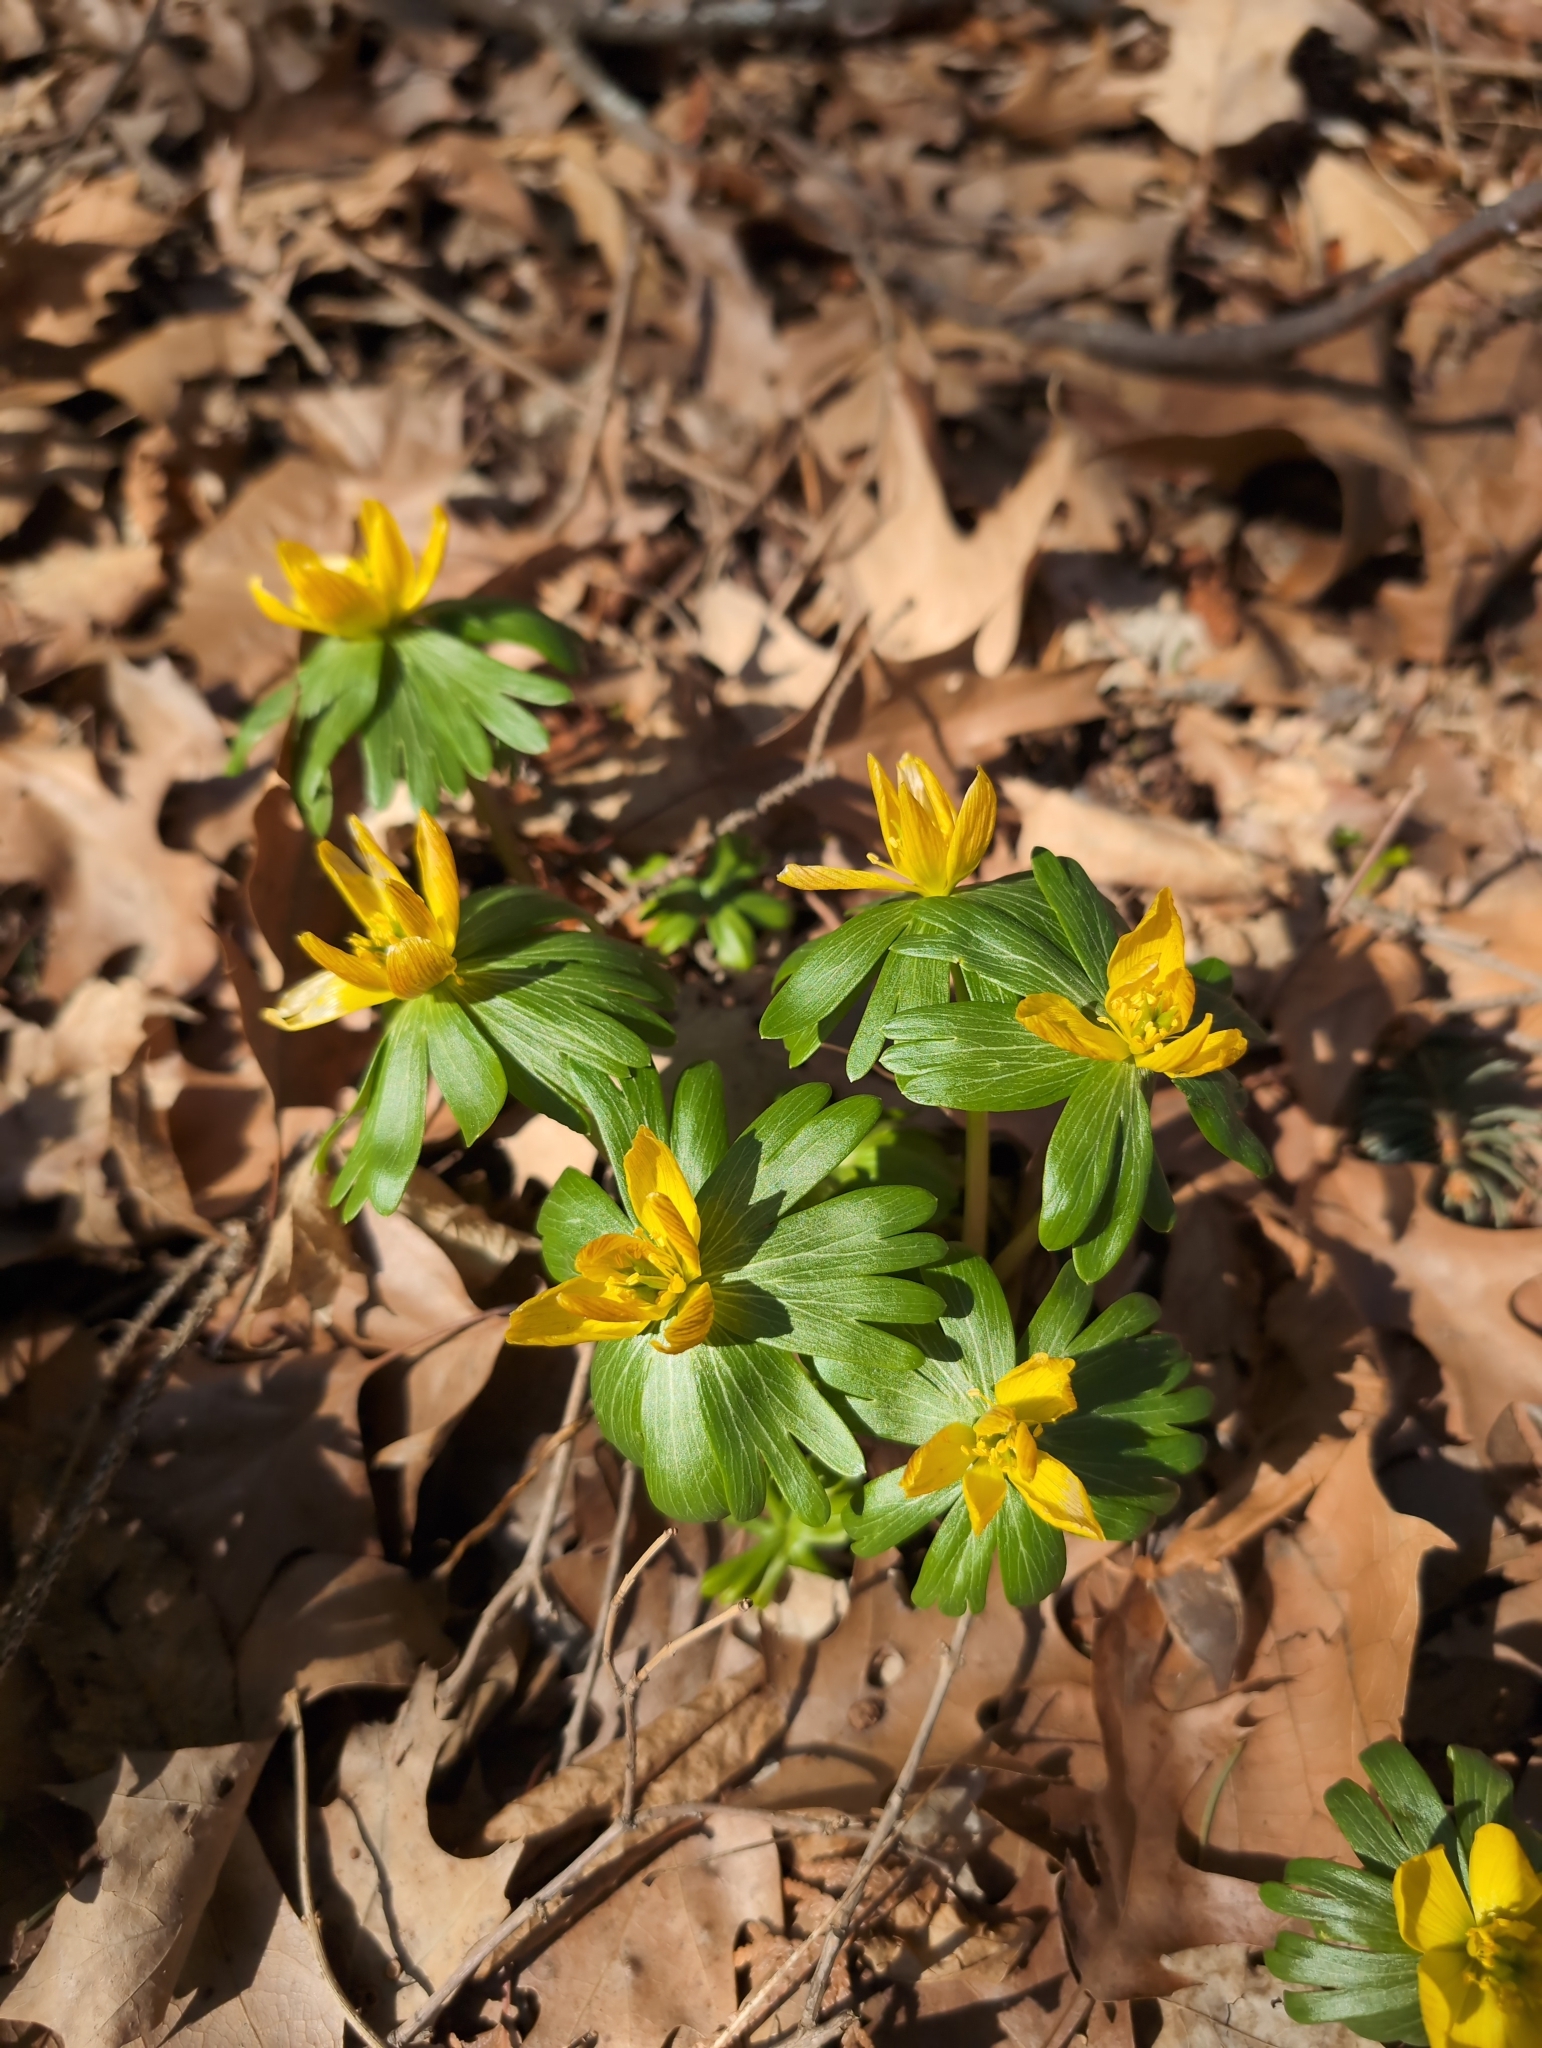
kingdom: Plantae
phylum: Tracheophyta
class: Magnoliopsida
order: Ranunculales
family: Ranunculaceae
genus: Eranthis
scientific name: Eranthis hyemalis
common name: Winter aconite
